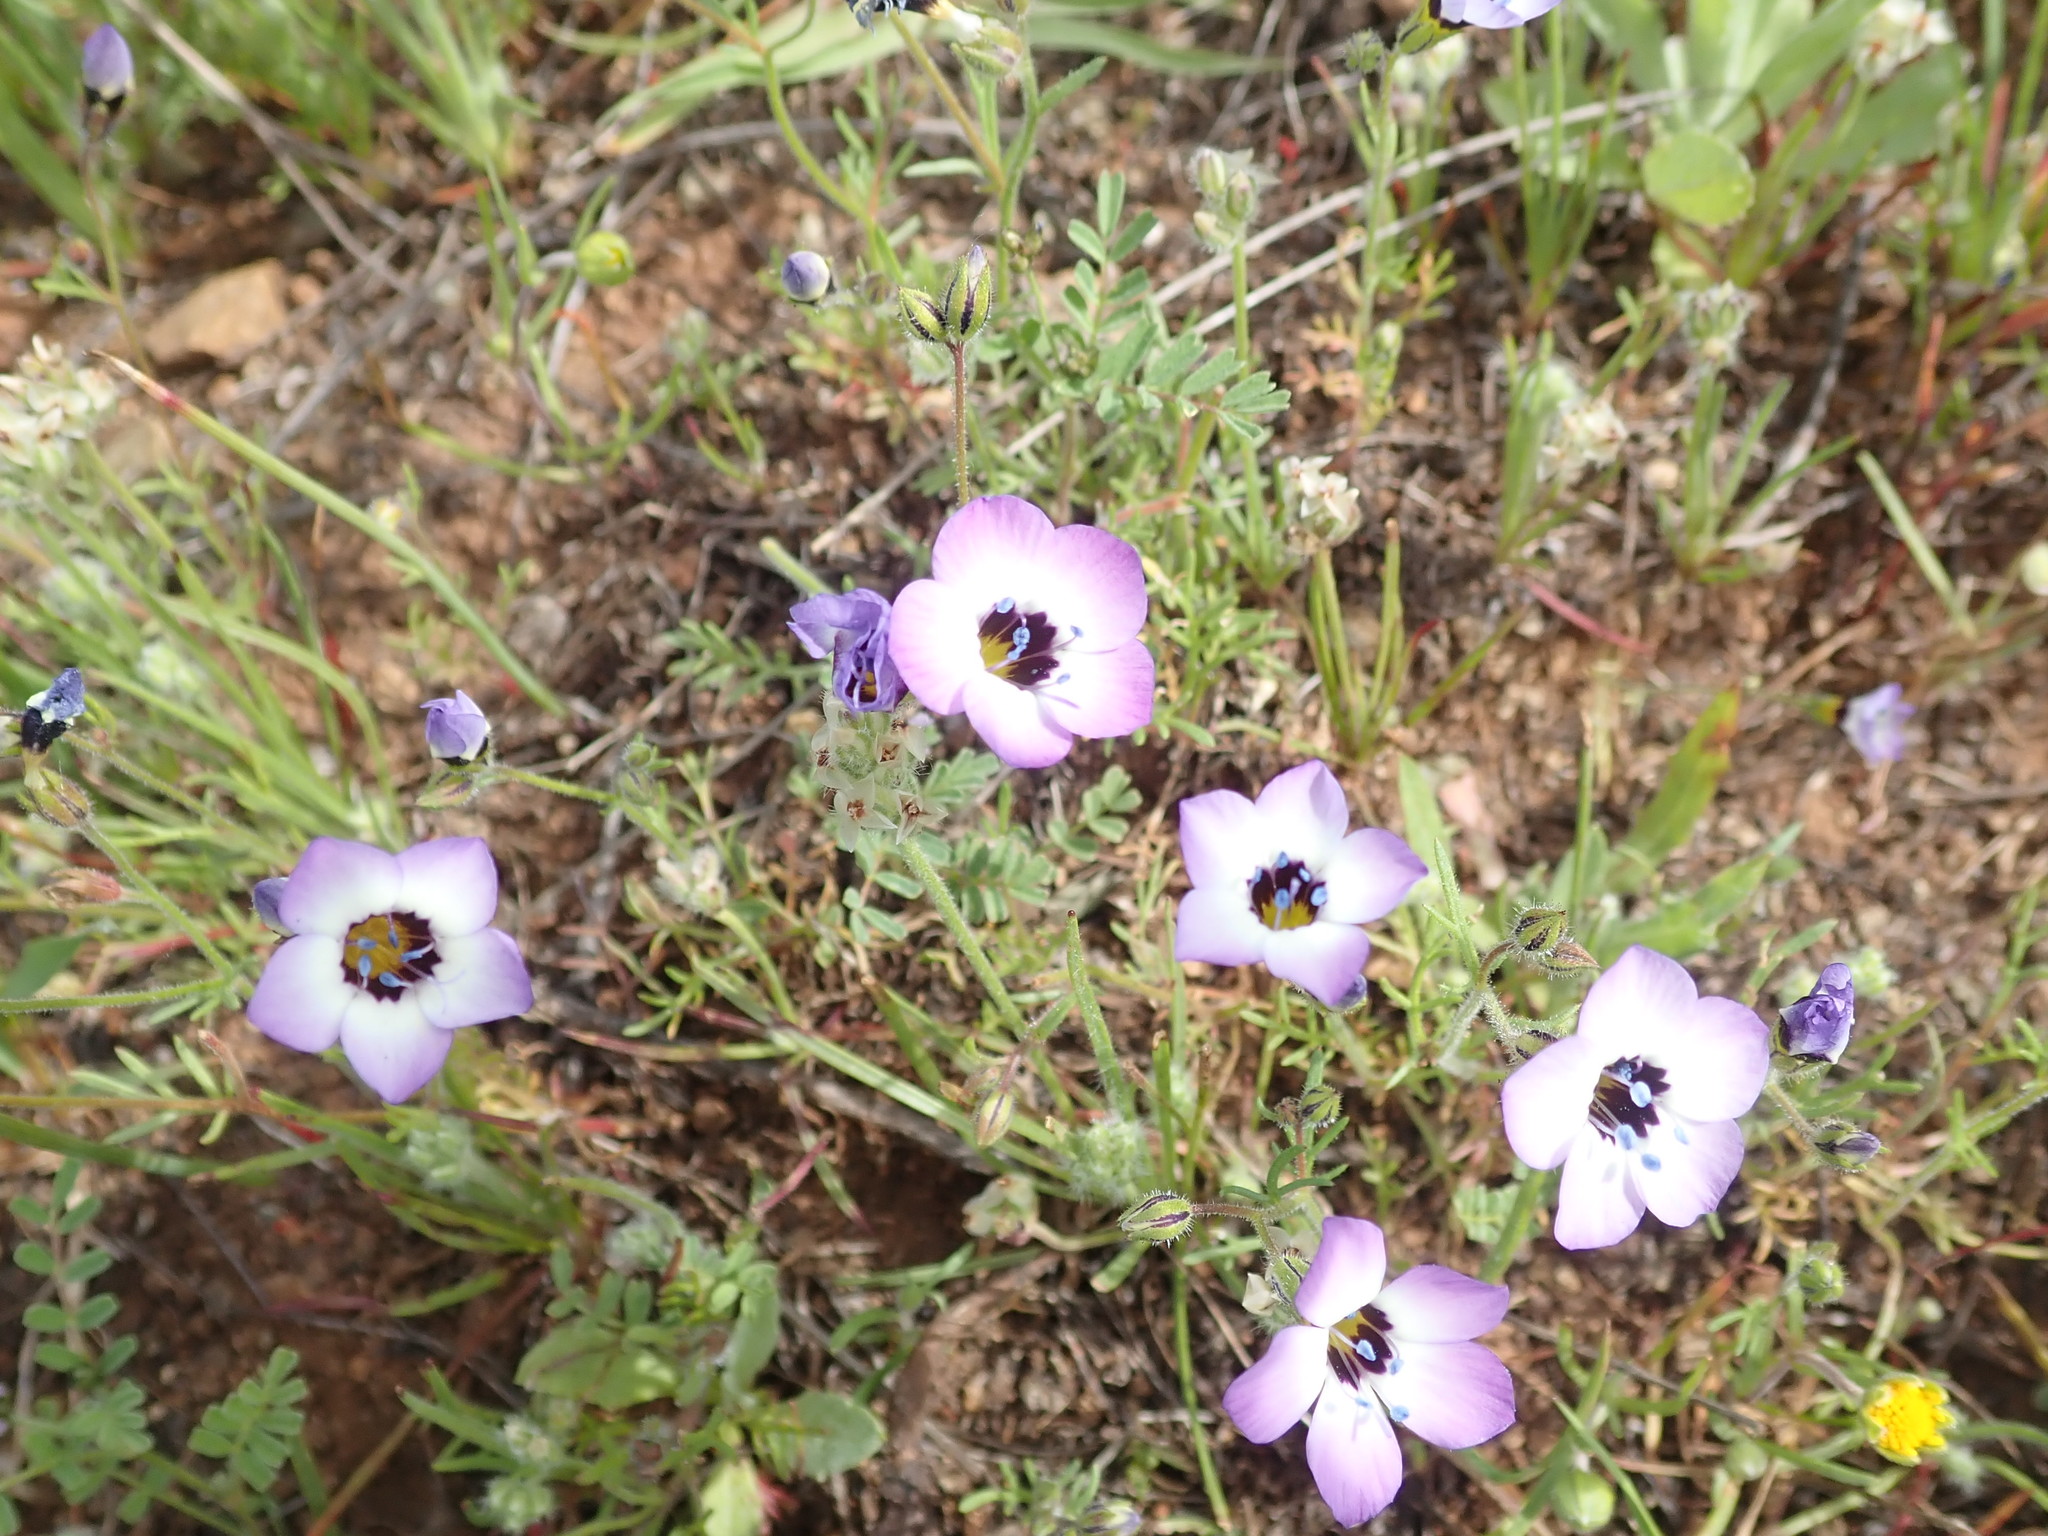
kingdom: Plantae
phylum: Tracheophyta
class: Magnoliopsida
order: Ericales
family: Polemoniaceae
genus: Gilia
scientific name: Gilia tricolor
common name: Bird's-eyes
